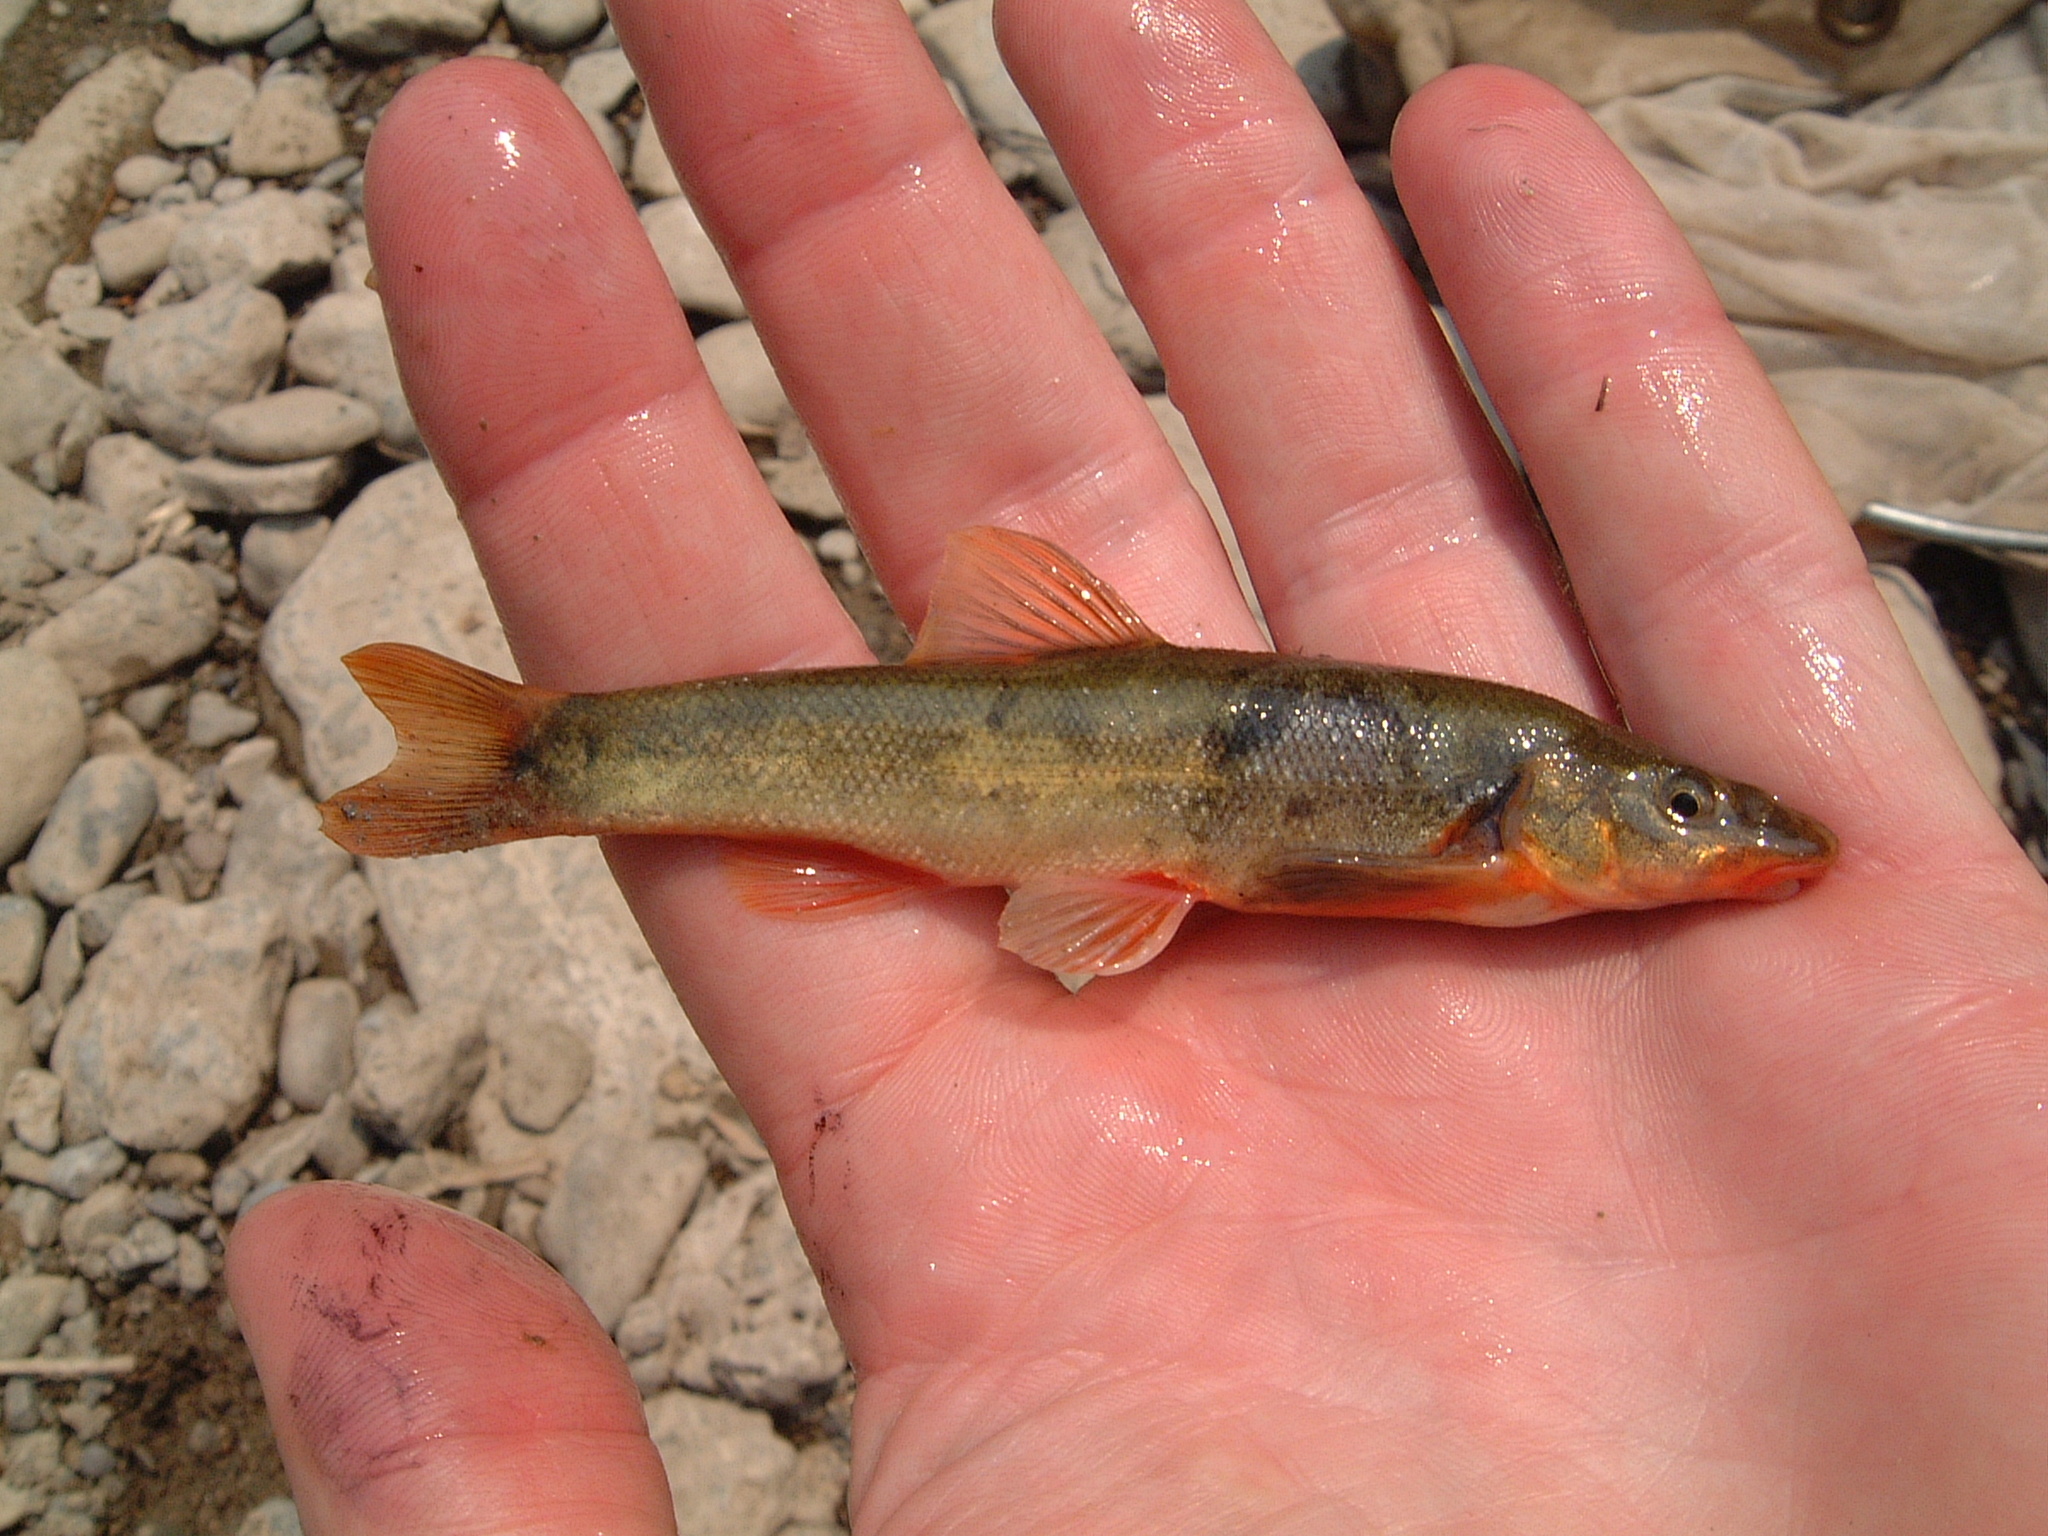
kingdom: Animalia
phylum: Chordata
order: Cypriniformes
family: Cyprinidae
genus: Rhinichthys
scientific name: Rhinichthys cataractae
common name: Longnose dace
